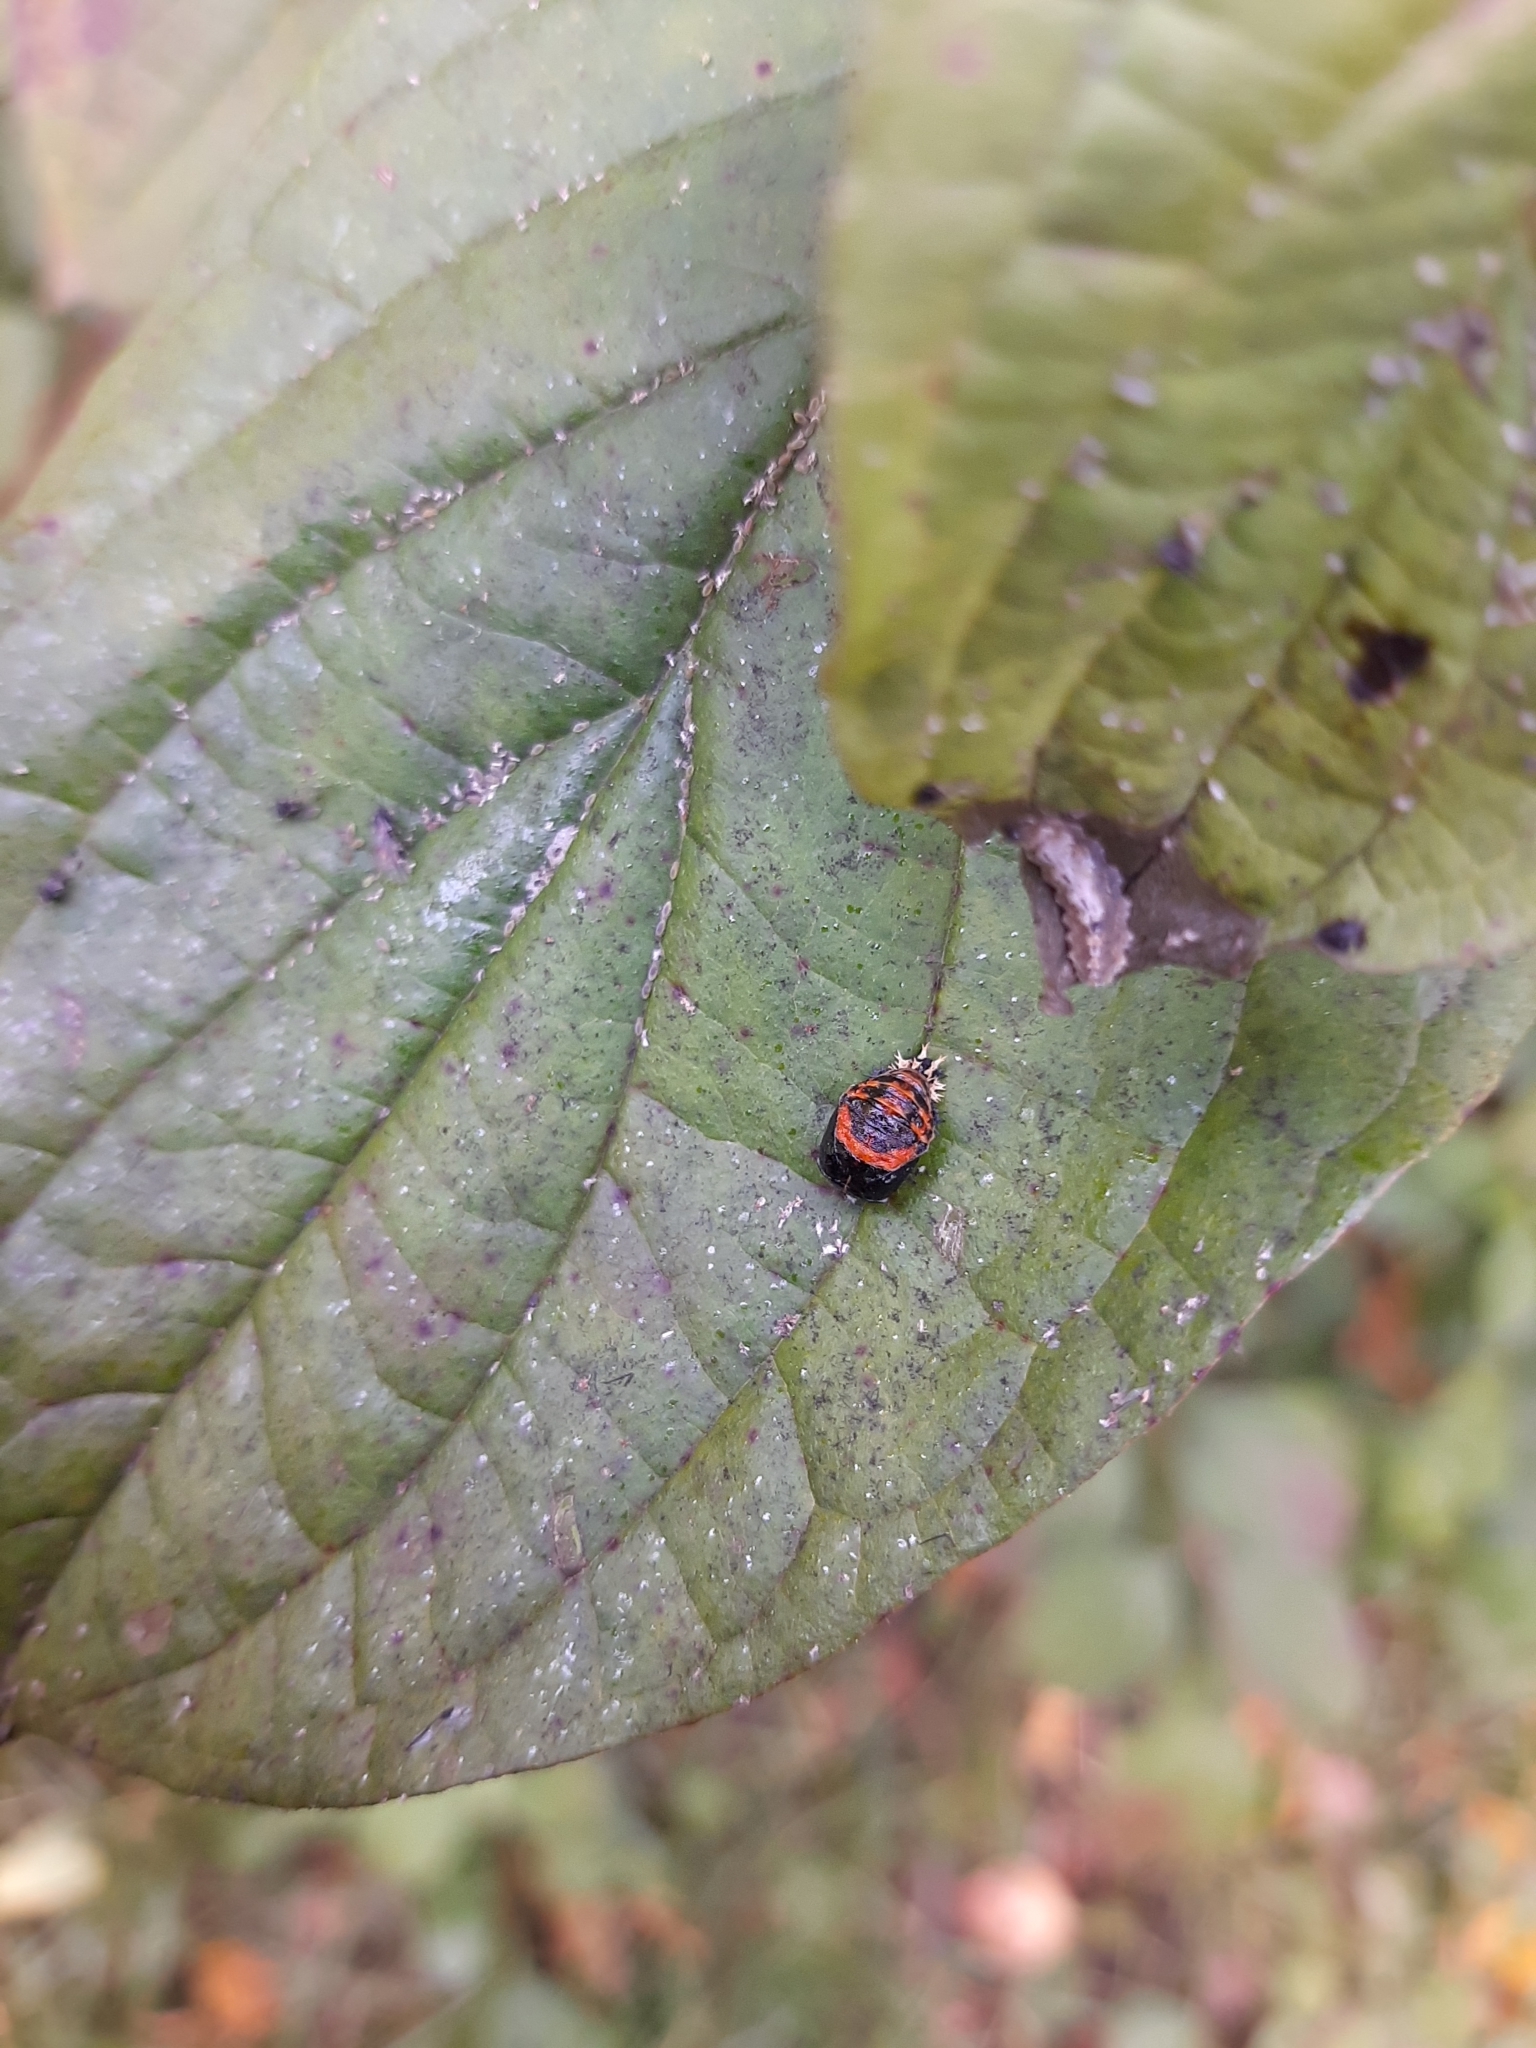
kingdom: Animalia
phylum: Arthropoda
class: Insecta
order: Coleoptera
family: Coccinellidae
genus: Harmonia
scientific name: Harmonia axyridis
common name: Harlequin ladybird
